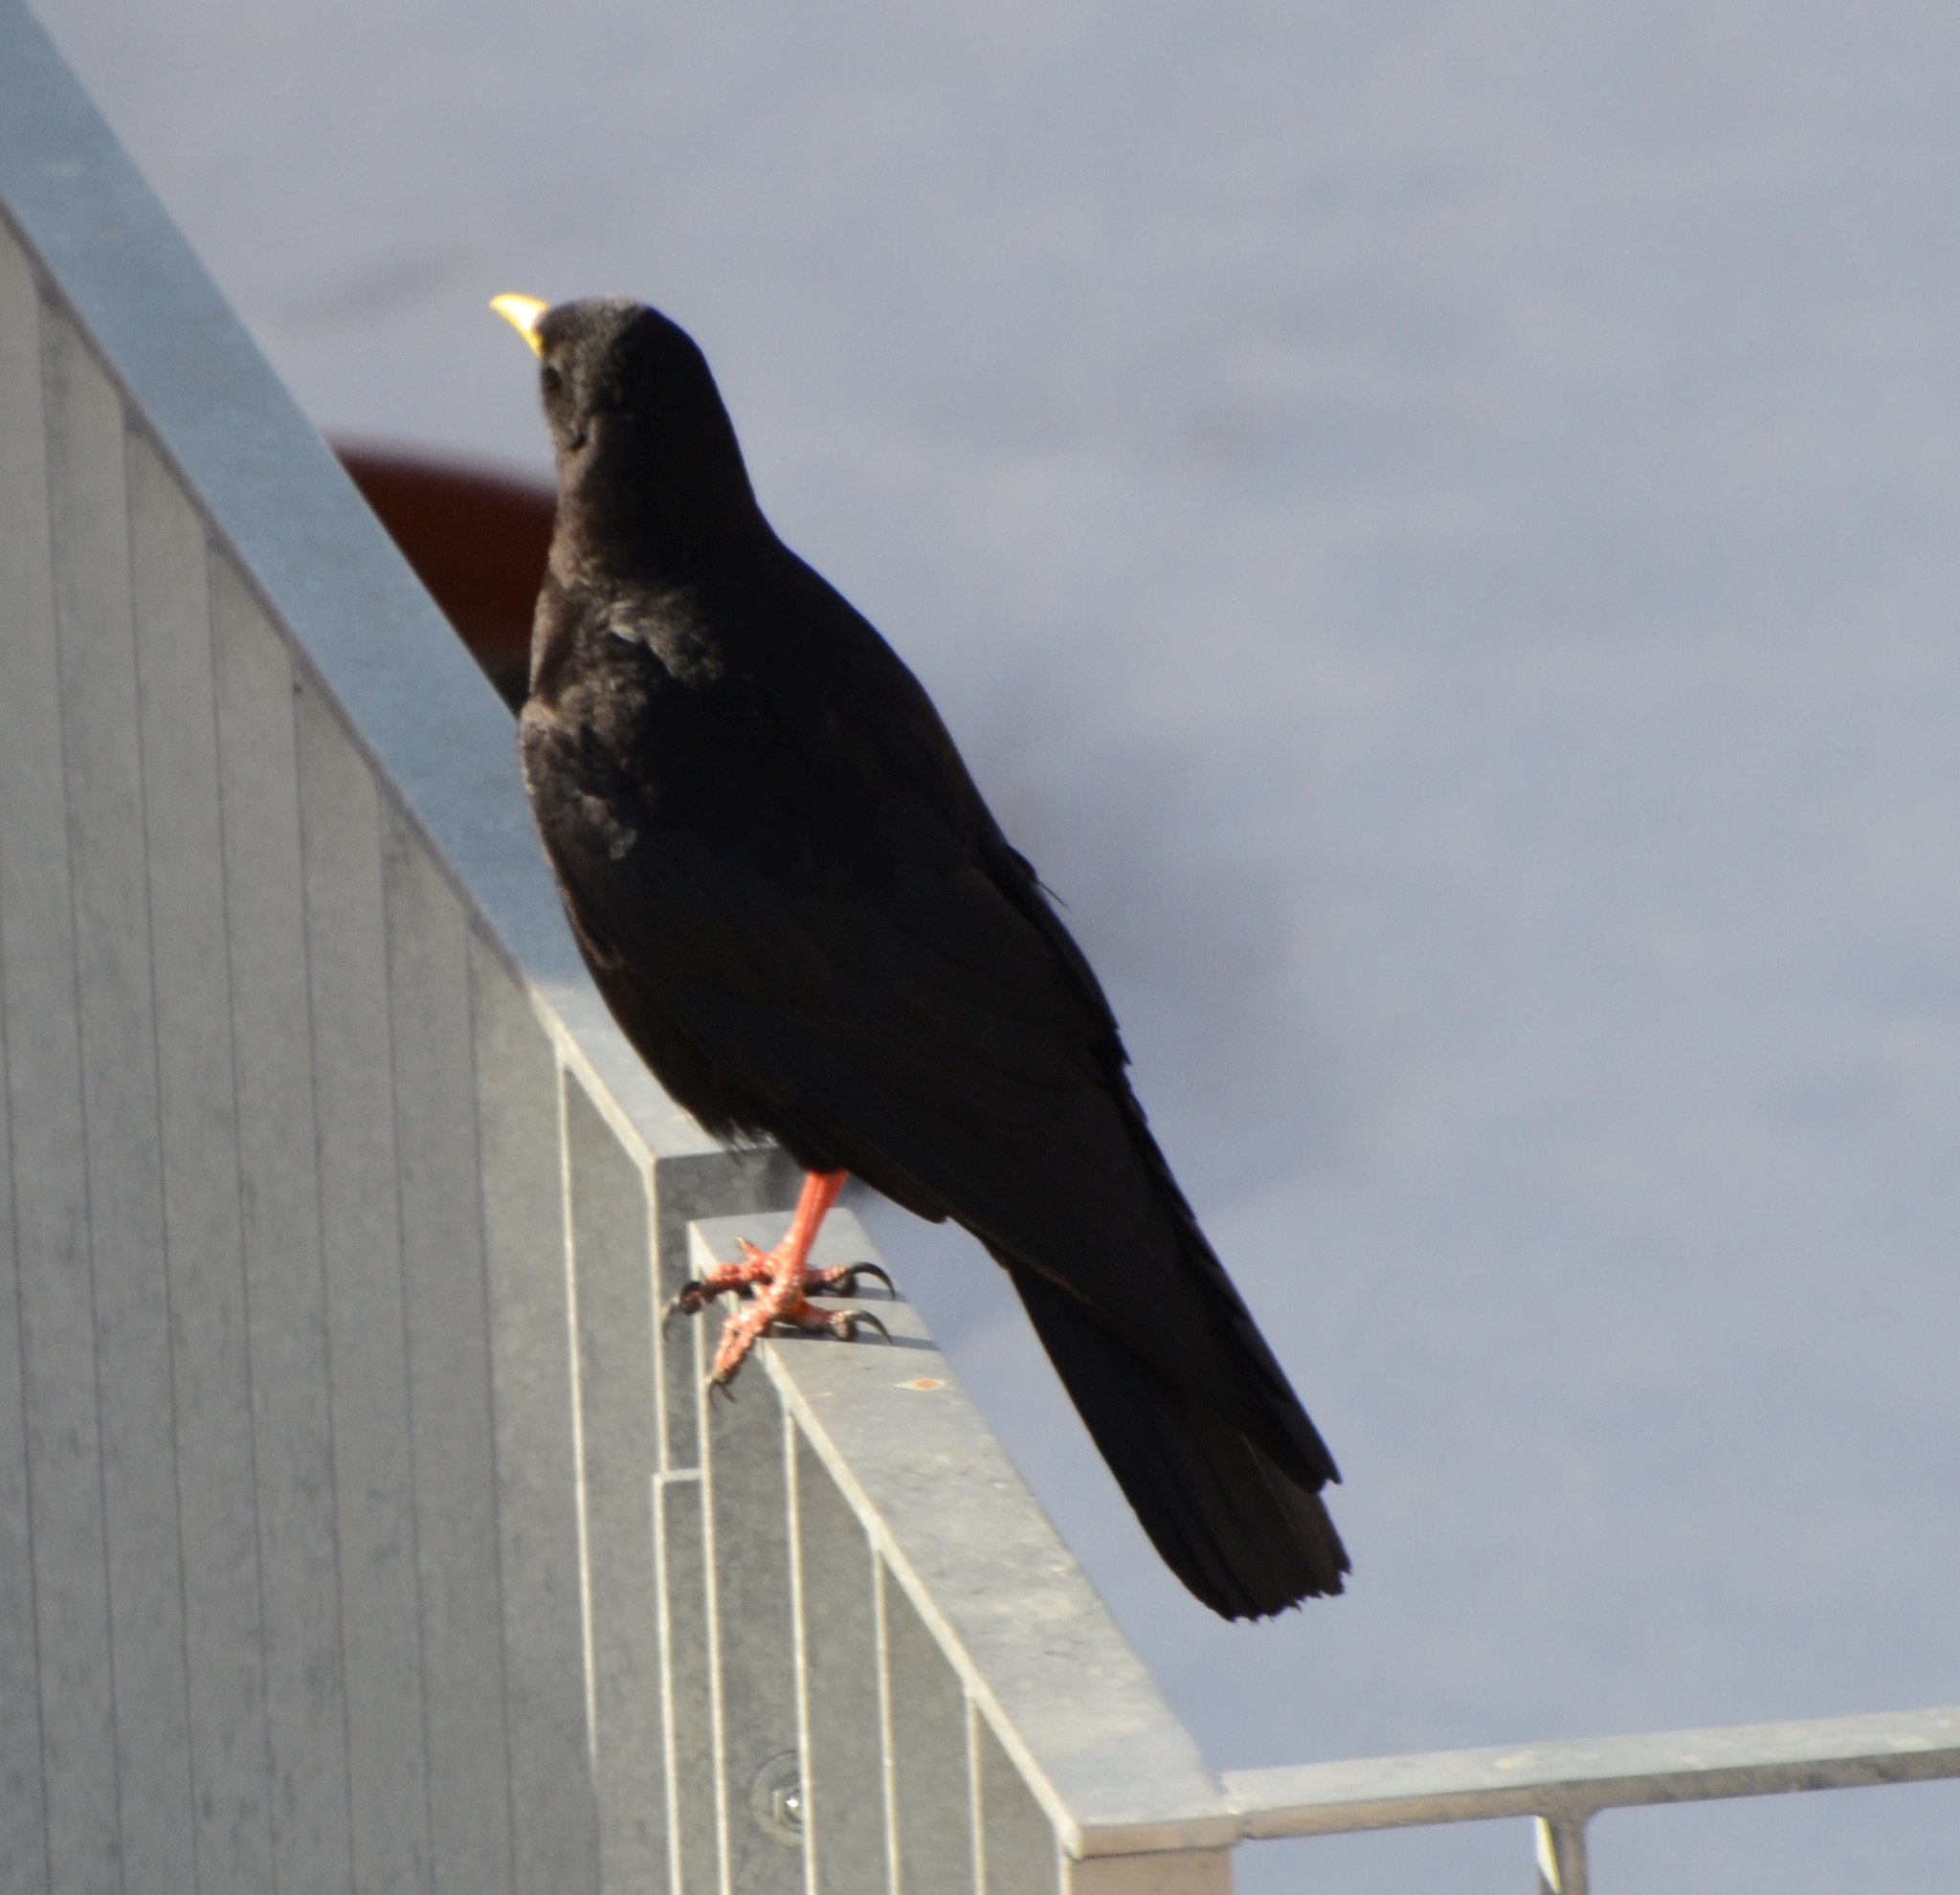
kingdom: Animalia
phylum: Chordata
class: Aves
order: Passeriformes
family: Corvidae
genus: Pyrrhocorax
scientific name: Pyrrhocorax graculus
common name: Alpine chough
